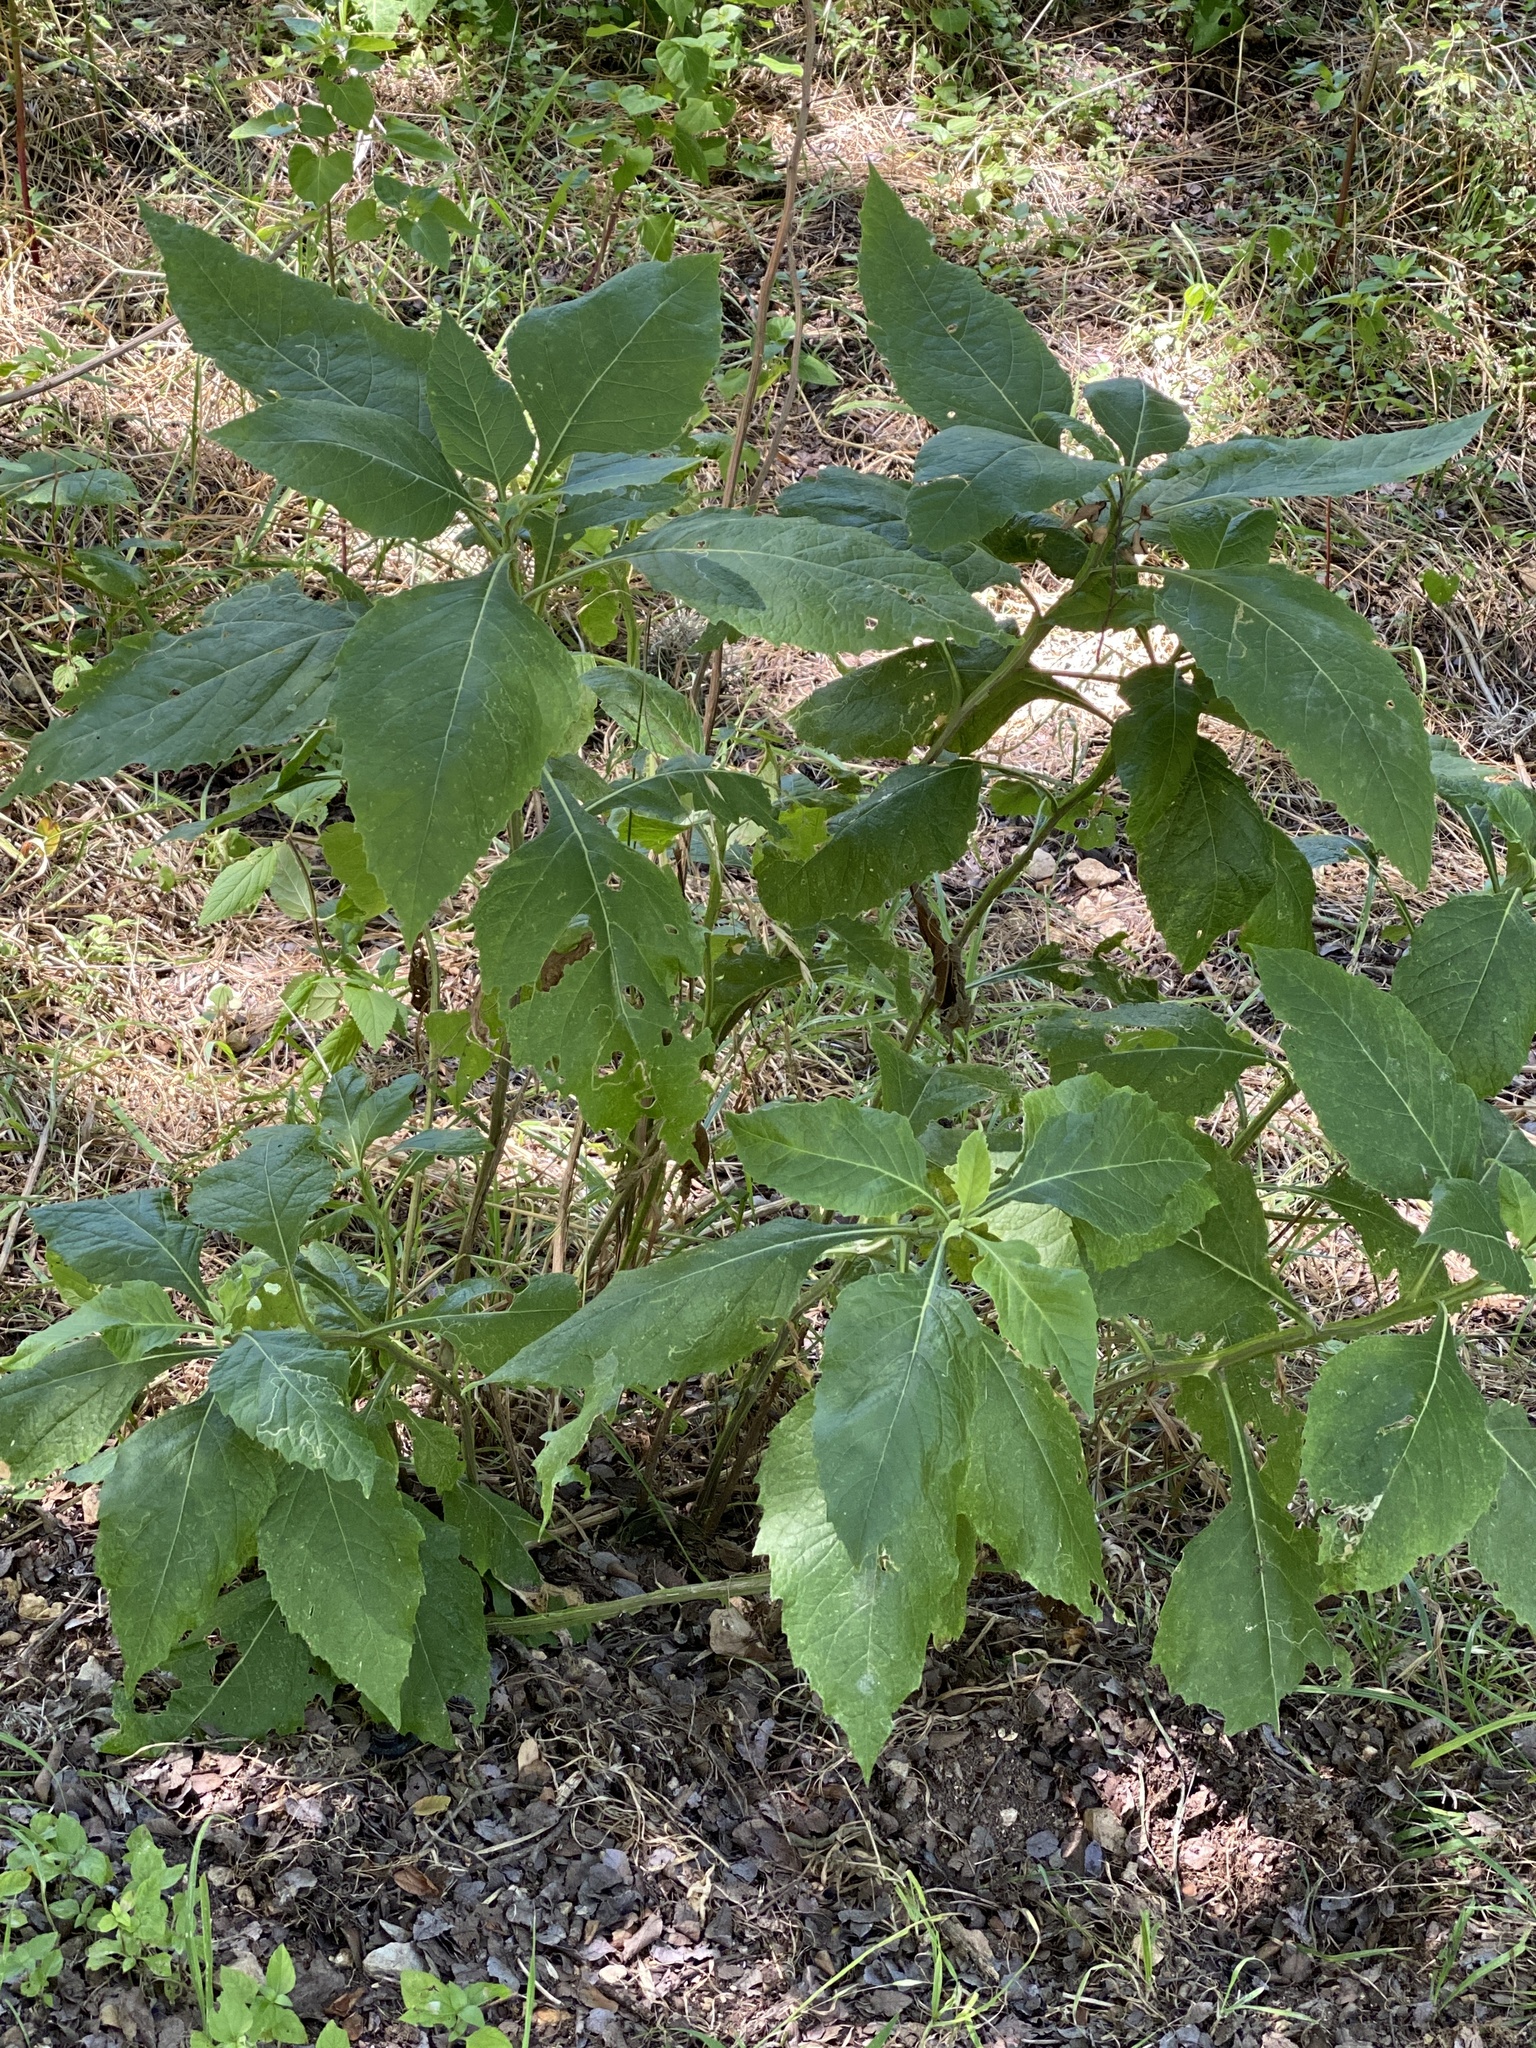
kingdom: Plantae
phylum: Tracheophyta
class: Magnoliopsida
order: Asterales
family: Asteraceae
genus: Verbesina
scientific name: Verbesina virginica
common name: Frostweed
